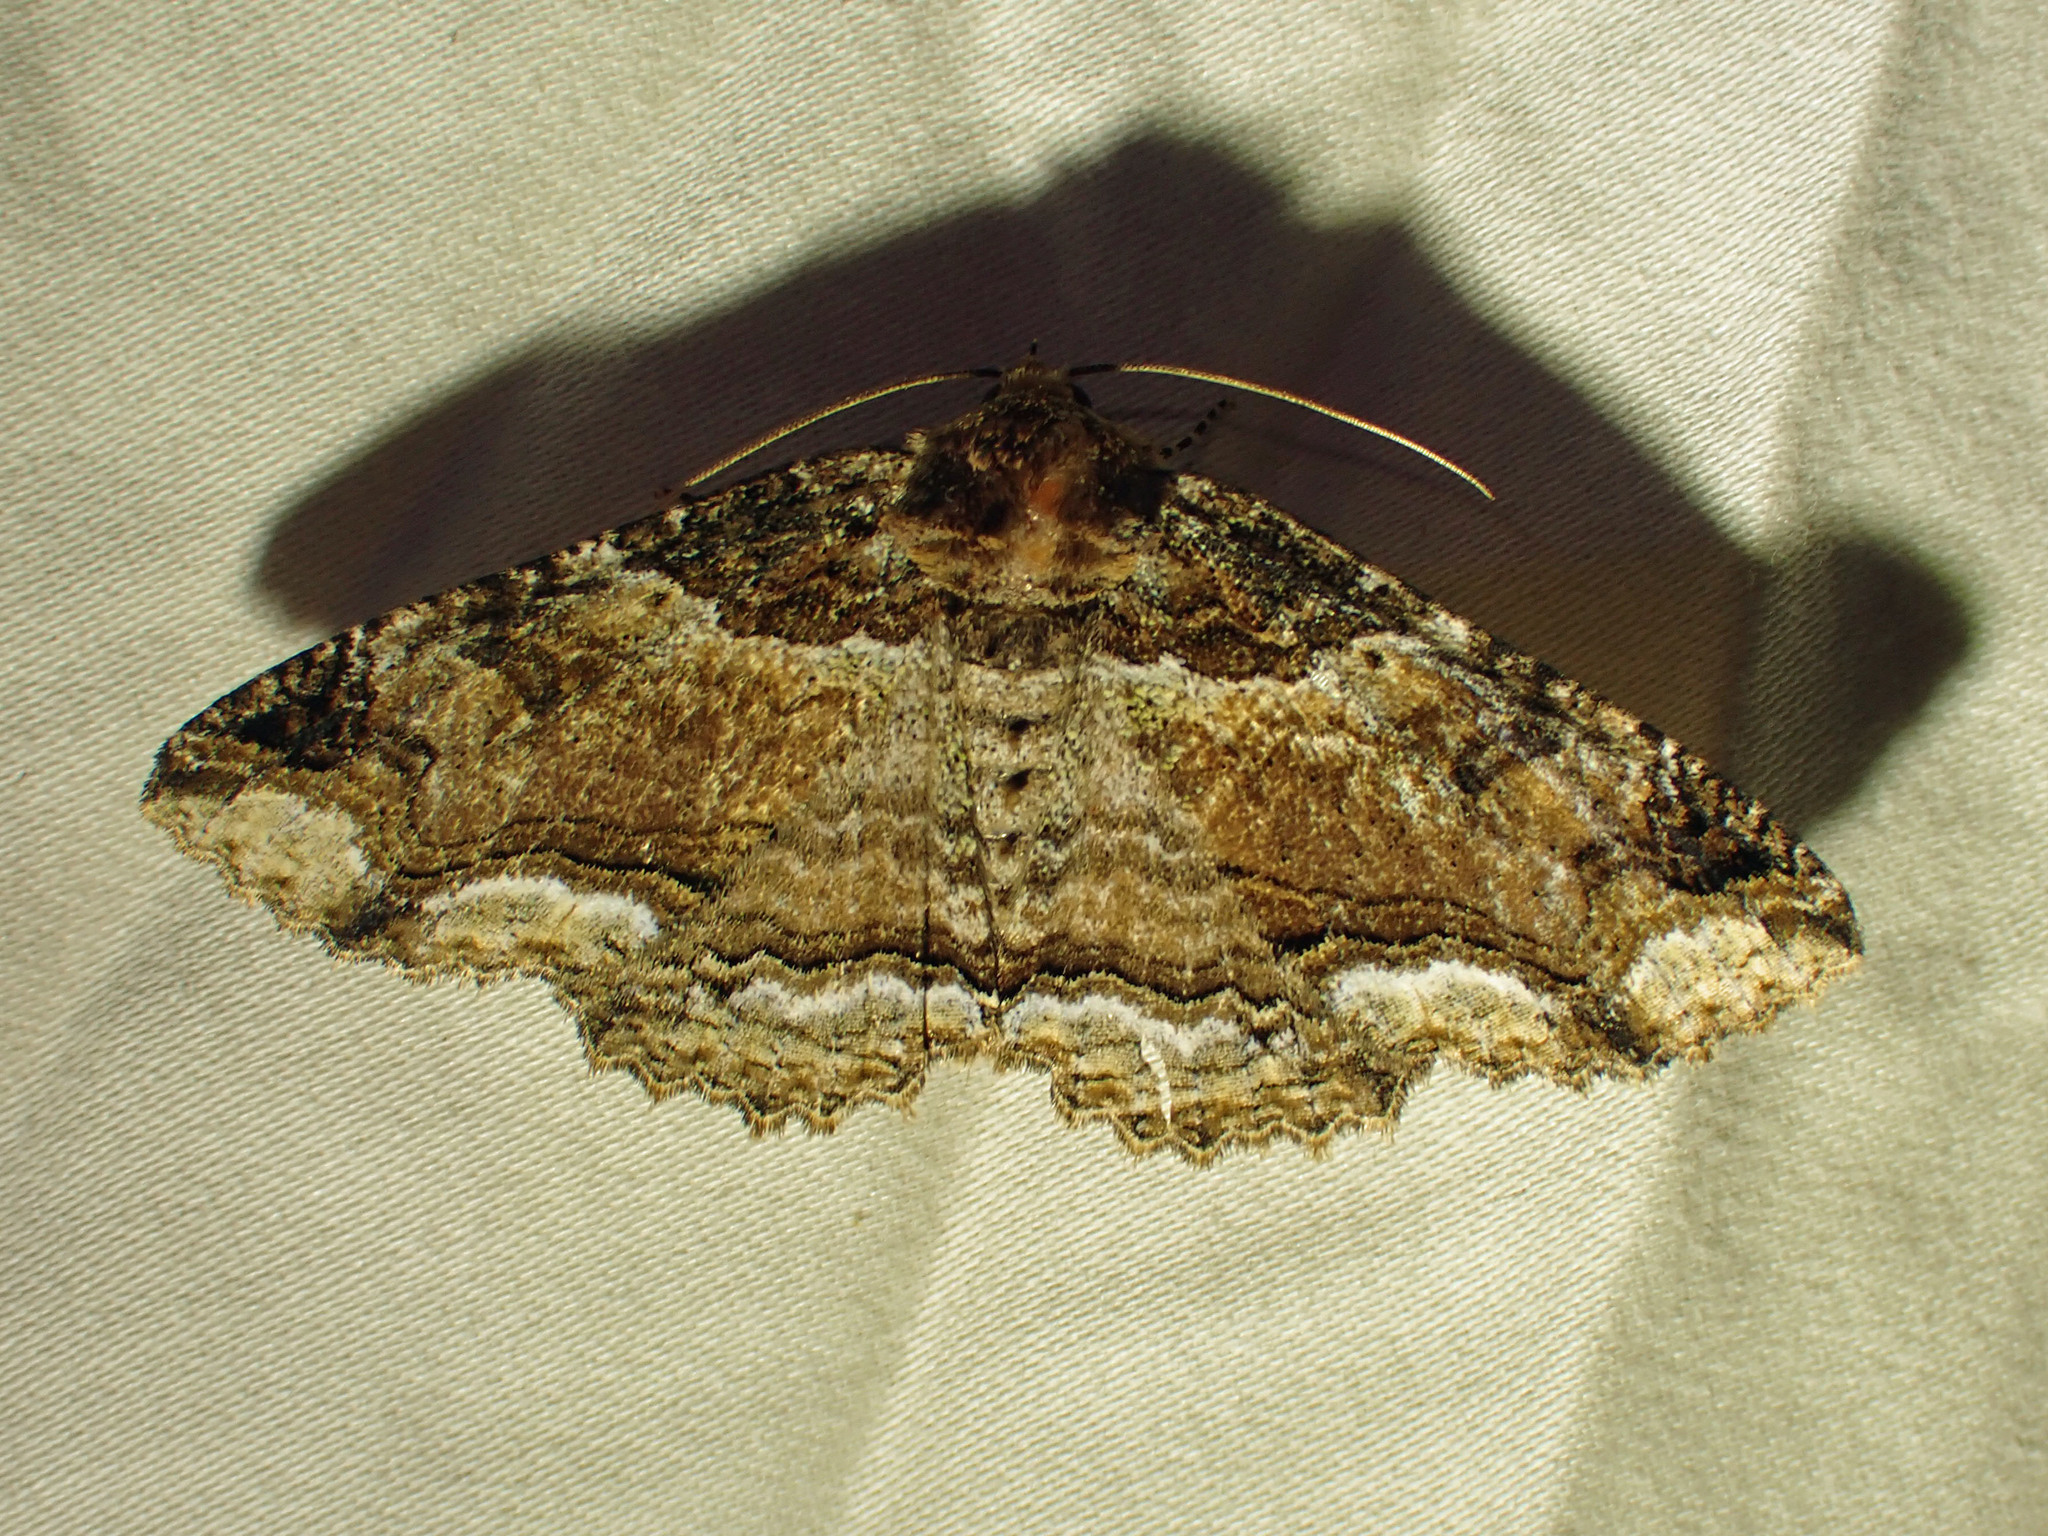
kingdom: Animalia
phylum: Arthropoda
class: Insecta
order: Lepidoptera
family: Erebidae
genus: Zale
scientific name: Zale minerea
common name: Colorful zale moth
